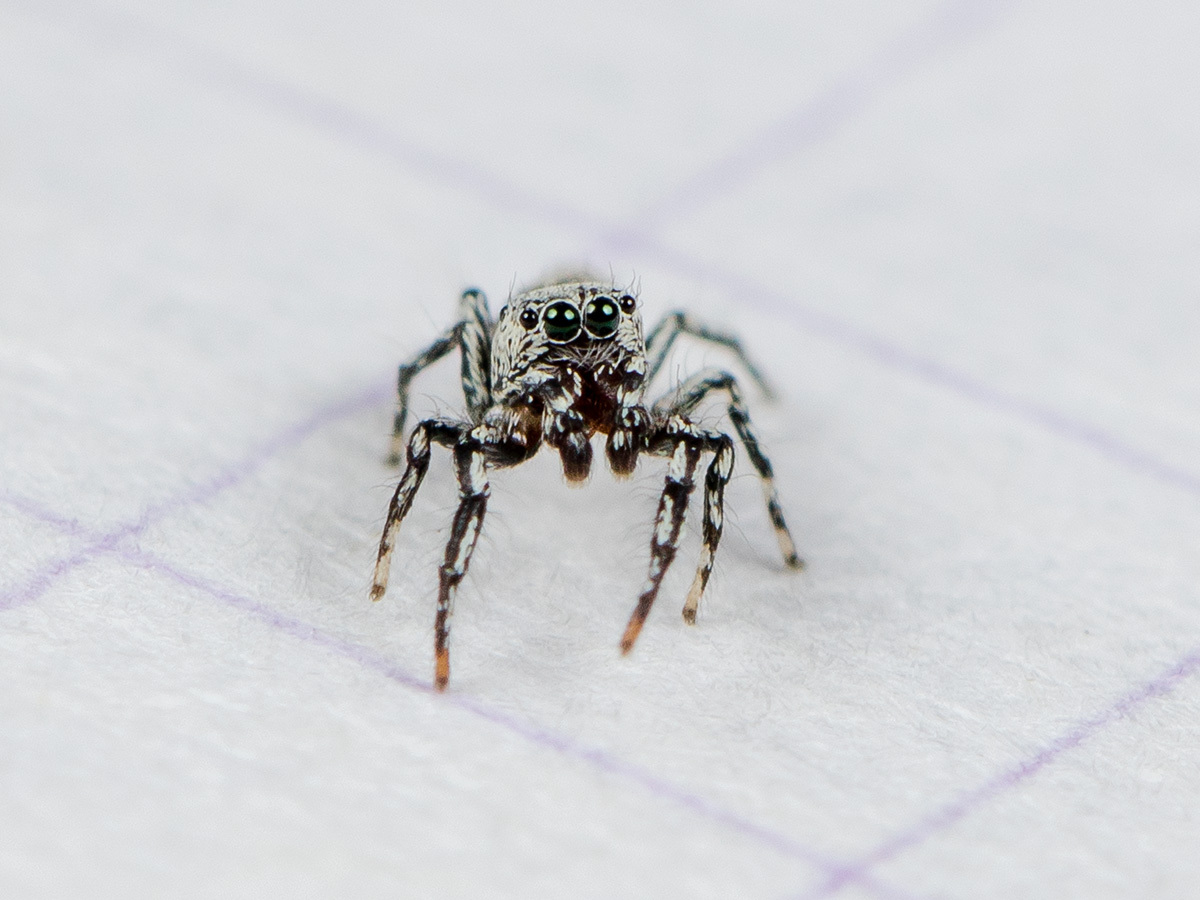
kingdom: Animalia
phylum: Arthropoda
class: Arachnida
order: Araneae
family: Salticidae
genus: Salticus
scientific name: Salticus dzhungaricus
